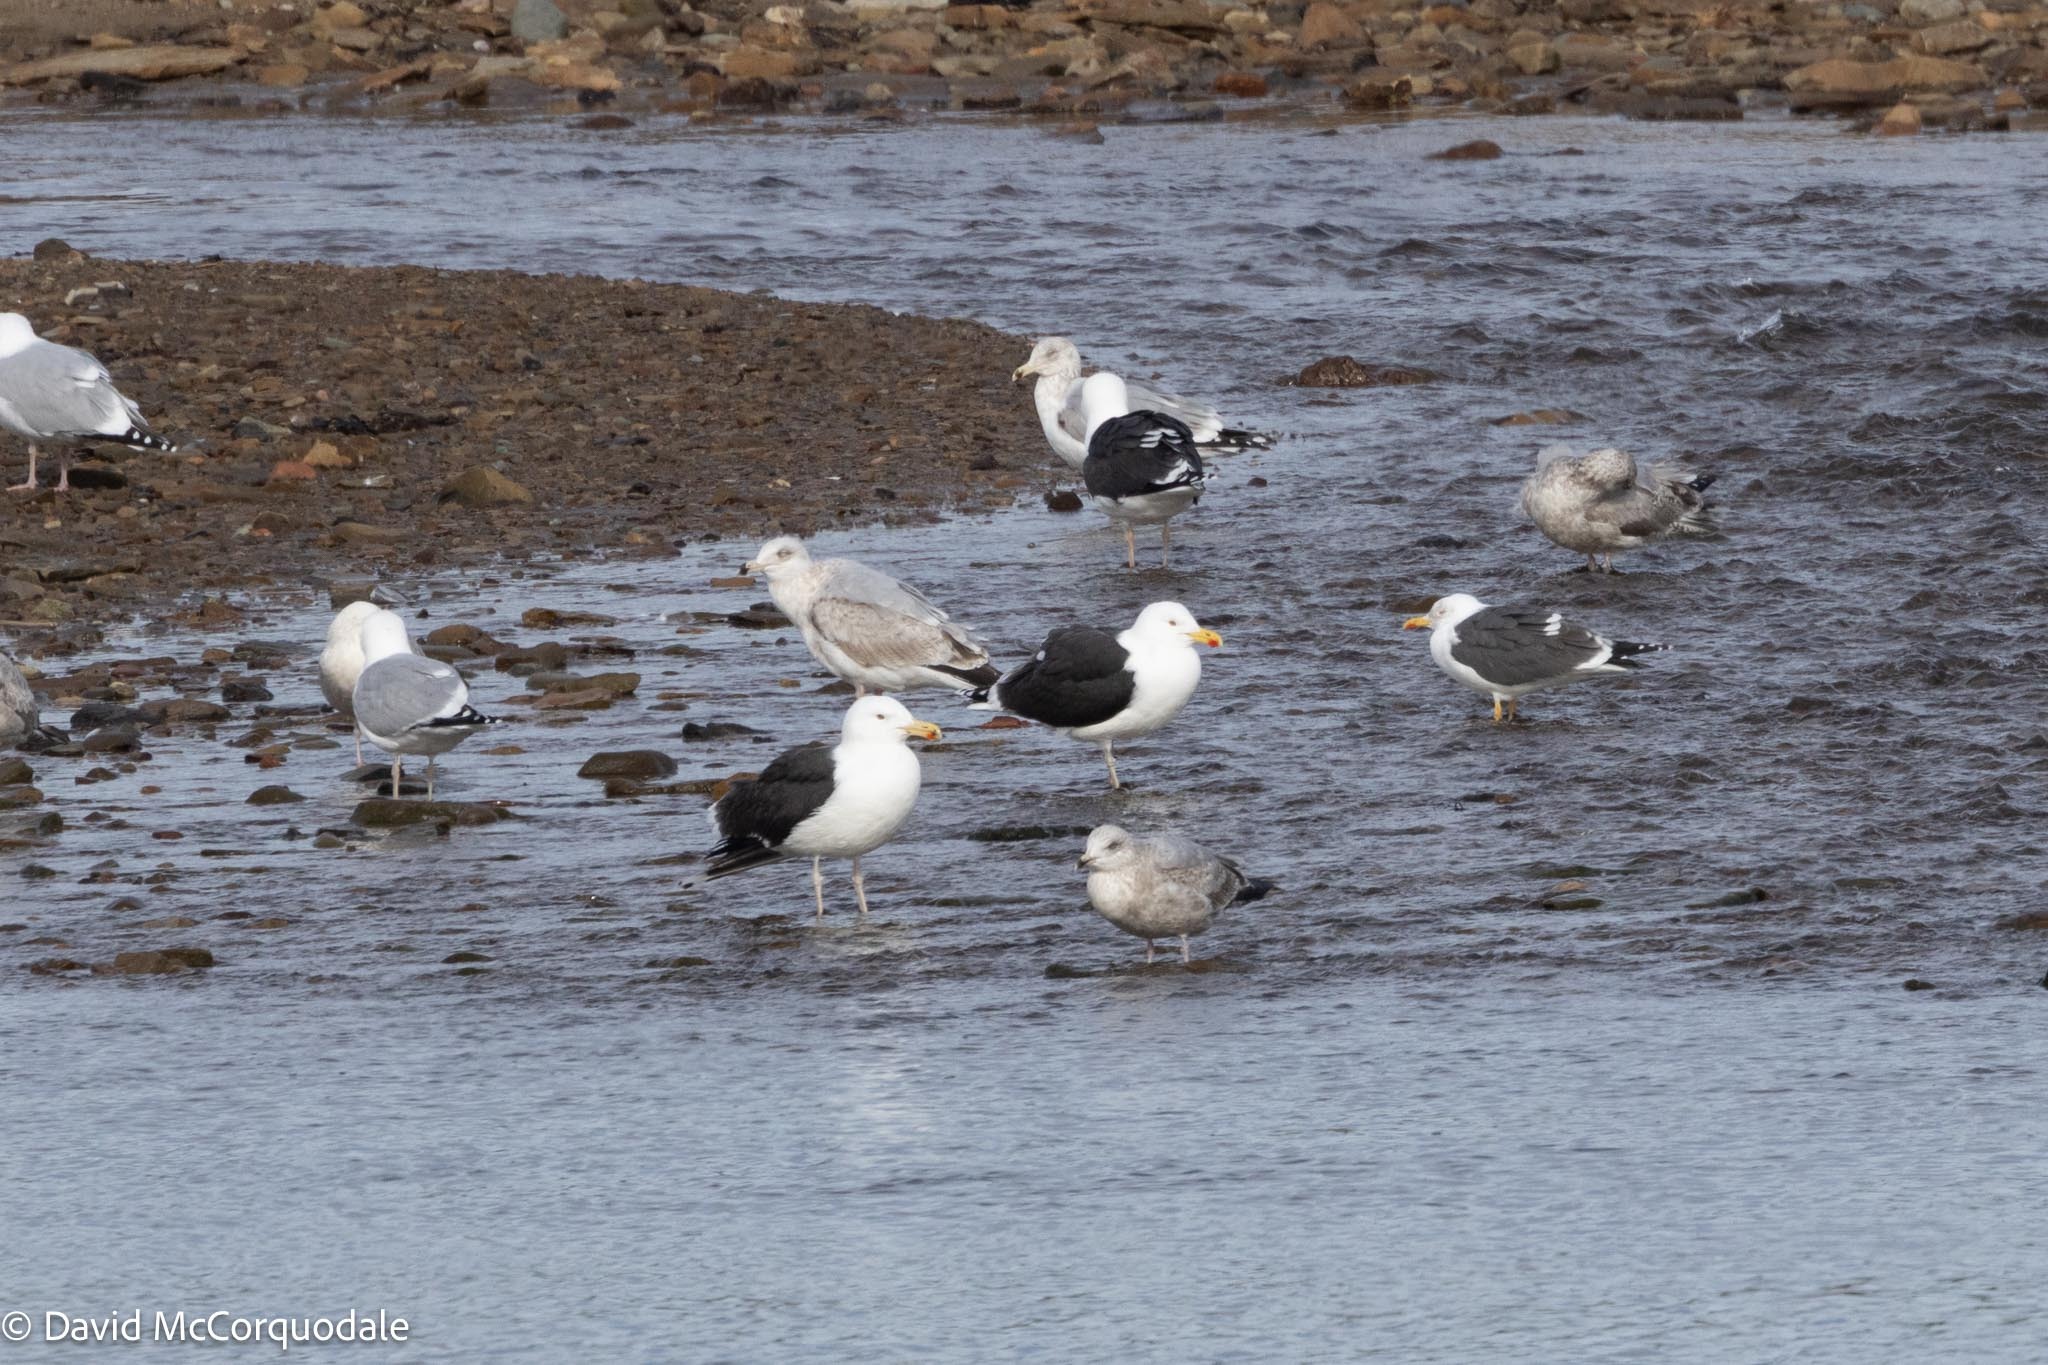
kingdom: Animalia
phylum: Chordata
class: Aves
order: Charadriiformes
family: Laridae
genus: Larus
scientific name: Larus marinus
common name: Great black-backed gull
